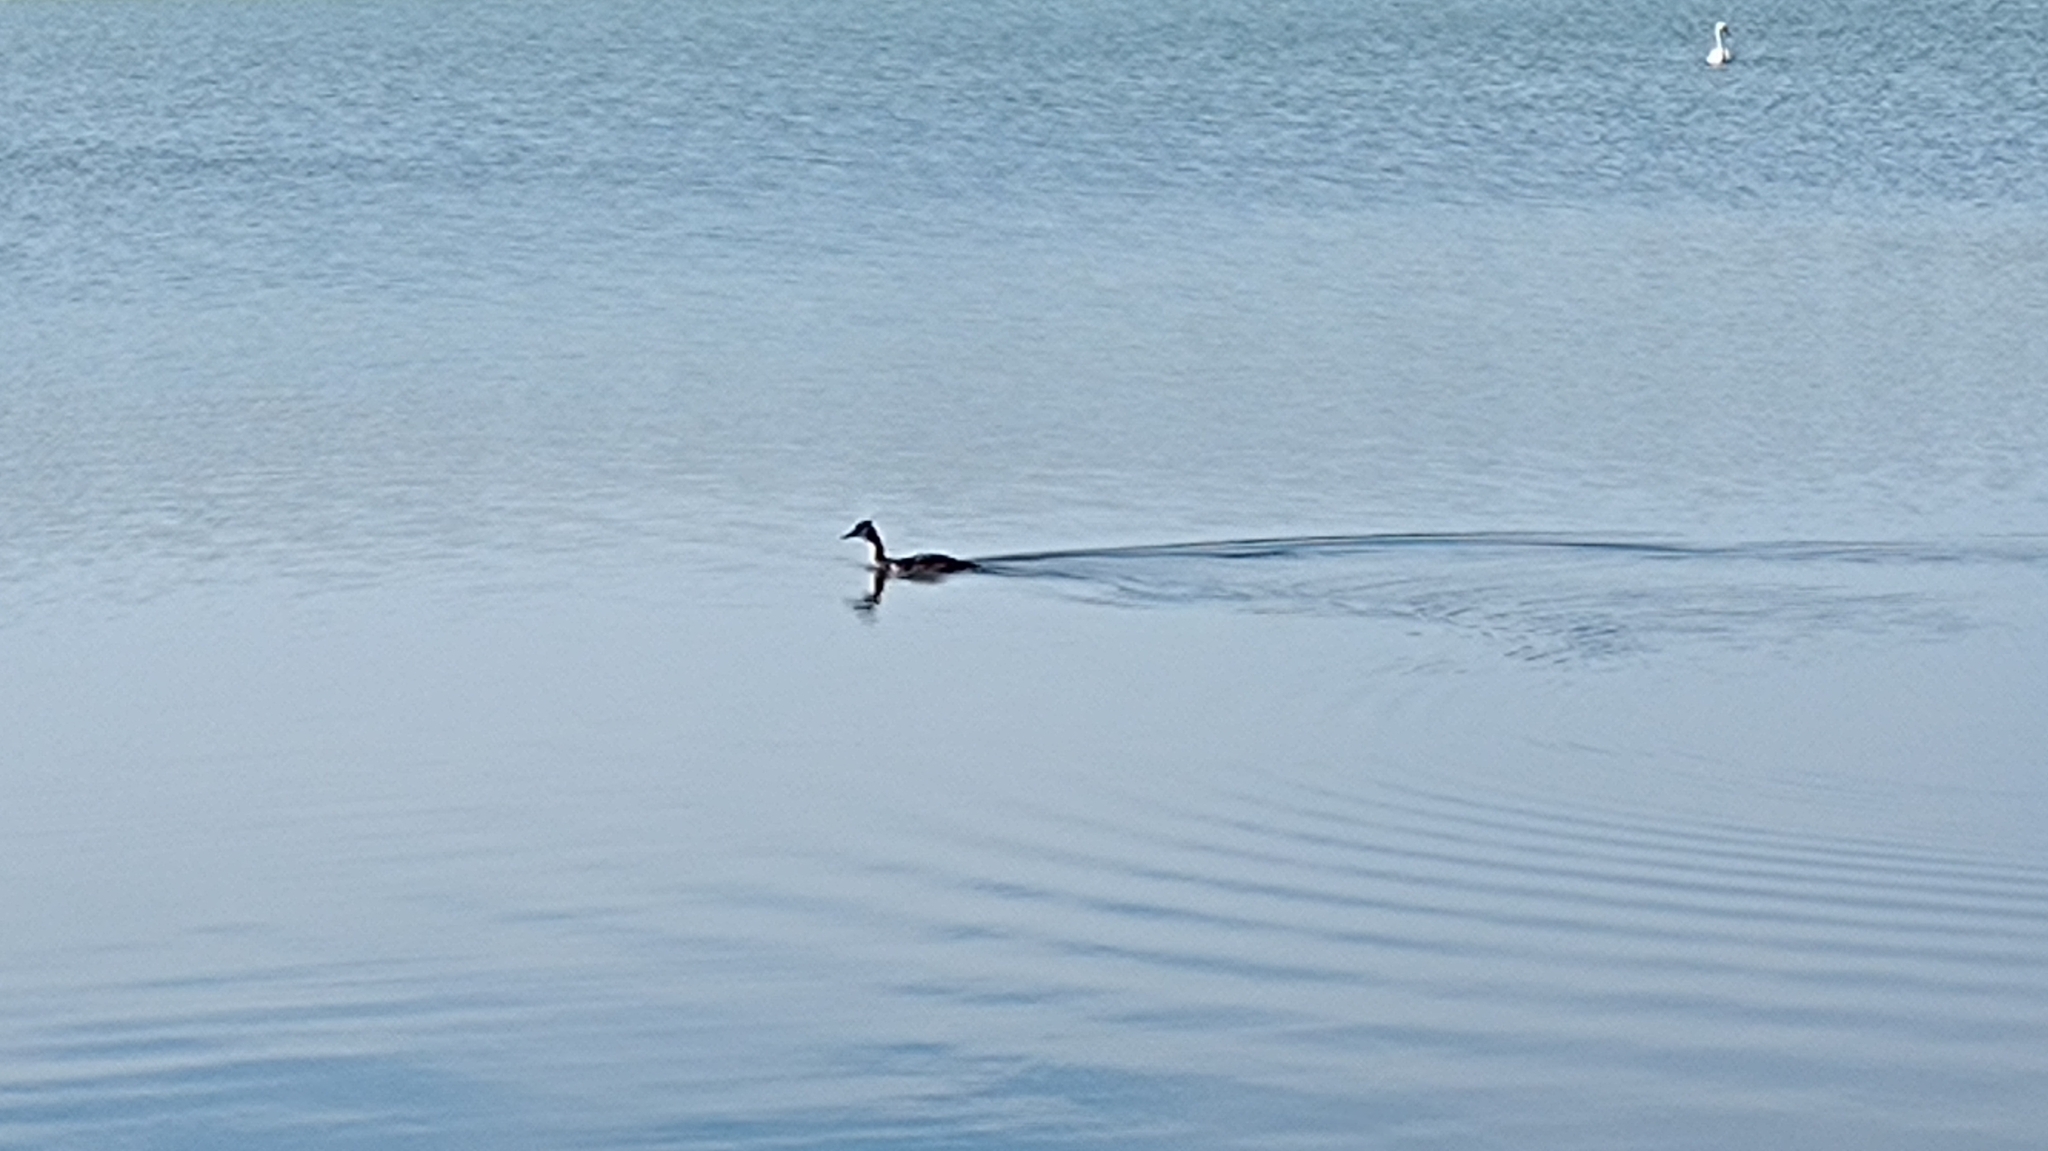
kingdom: Animalia
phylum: Chordata
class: Aves
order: Podicipediformes
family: Podicipedidae
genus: Podiceps
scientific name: Podiceps cristatus
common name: Great crested grebe
